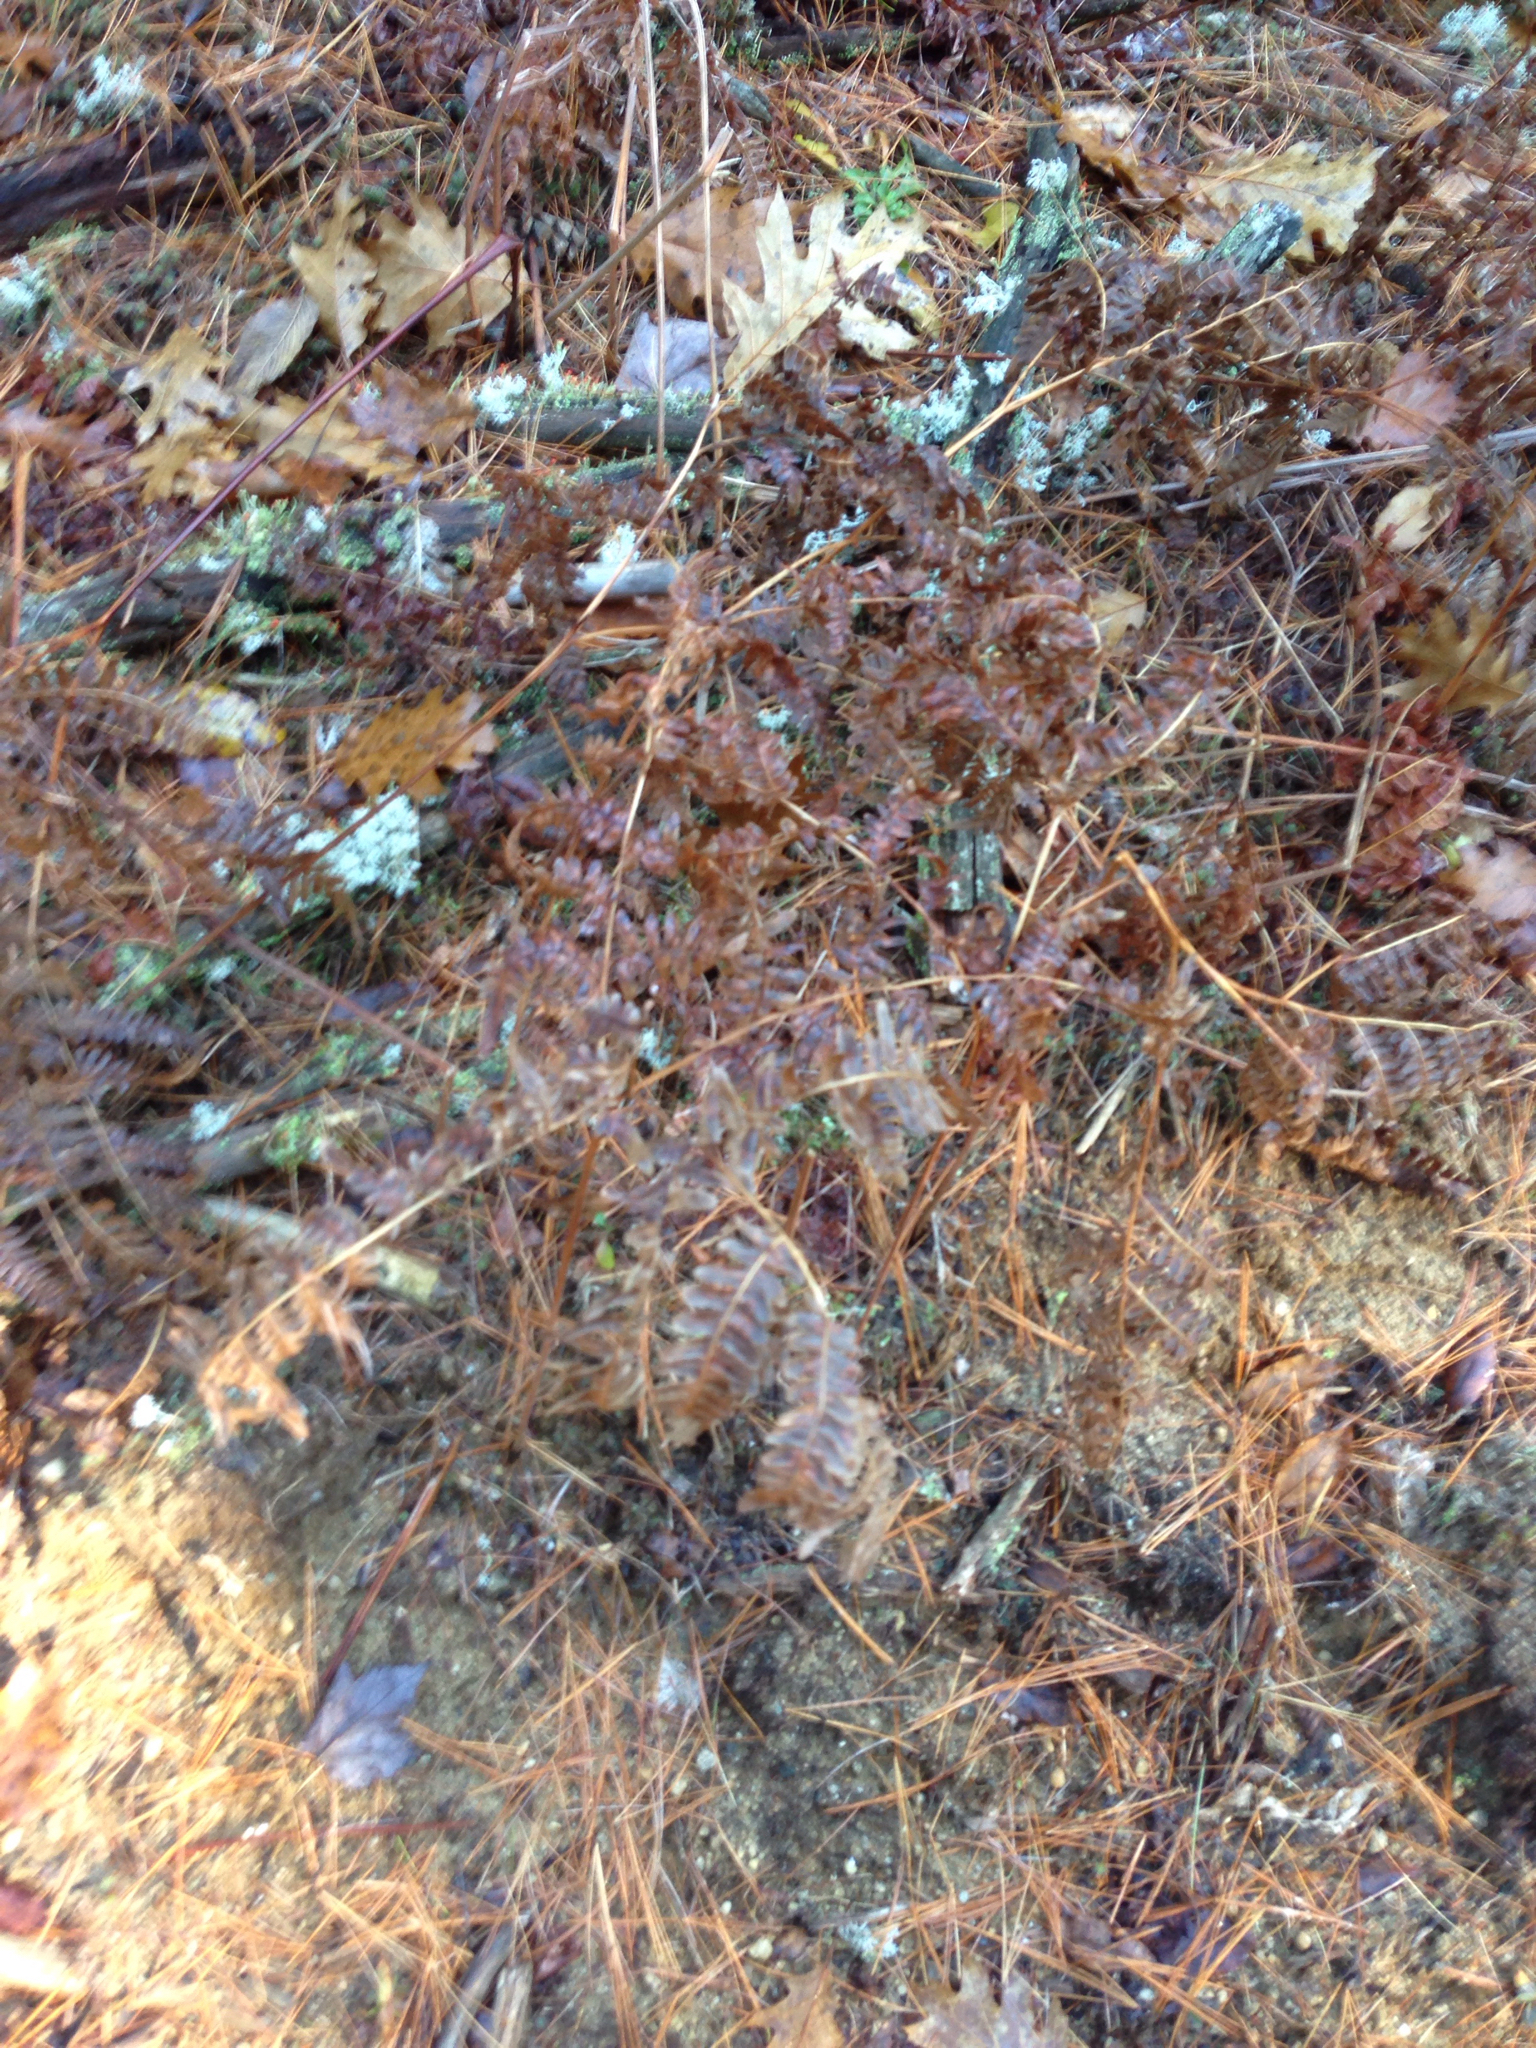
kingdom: Plantae
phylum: Tracheophyta
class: Polypodiopsida
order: Polypodiales
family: Dennstaedtiaceae
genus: Pteridium
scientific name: Pteridium aquilinum
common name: Bracken
